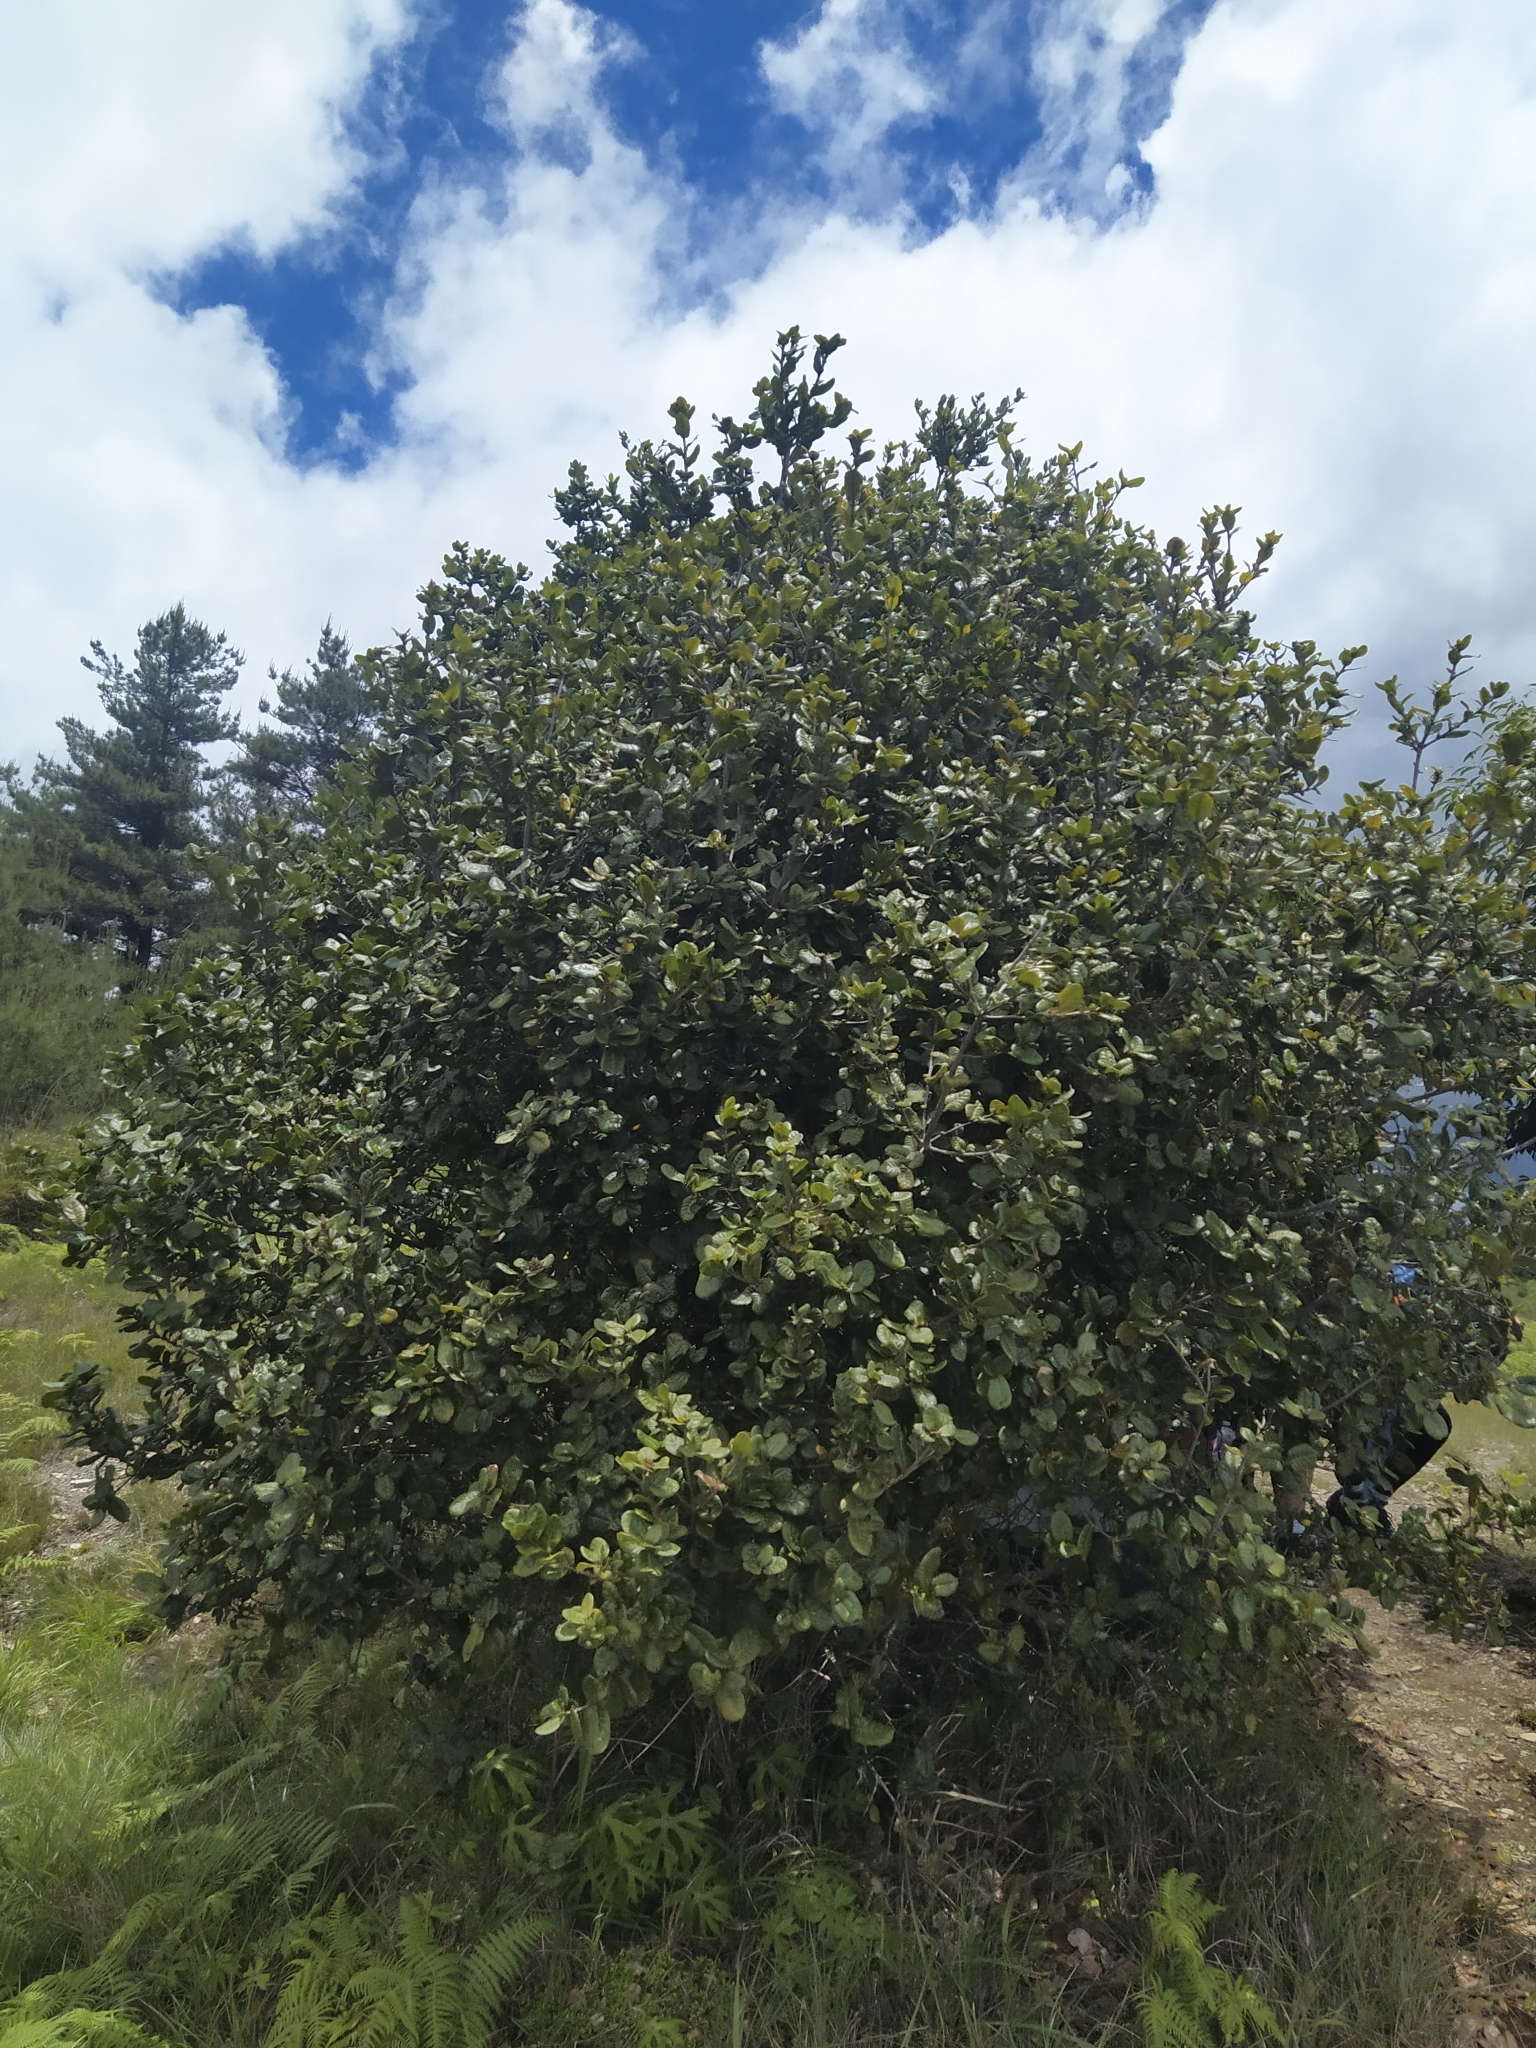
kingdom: Plantae
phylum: Tracheophyta
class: Magnoliopsida
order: Fagales
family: Fagaceae
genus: Quercus
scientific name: Quercus spinosa
